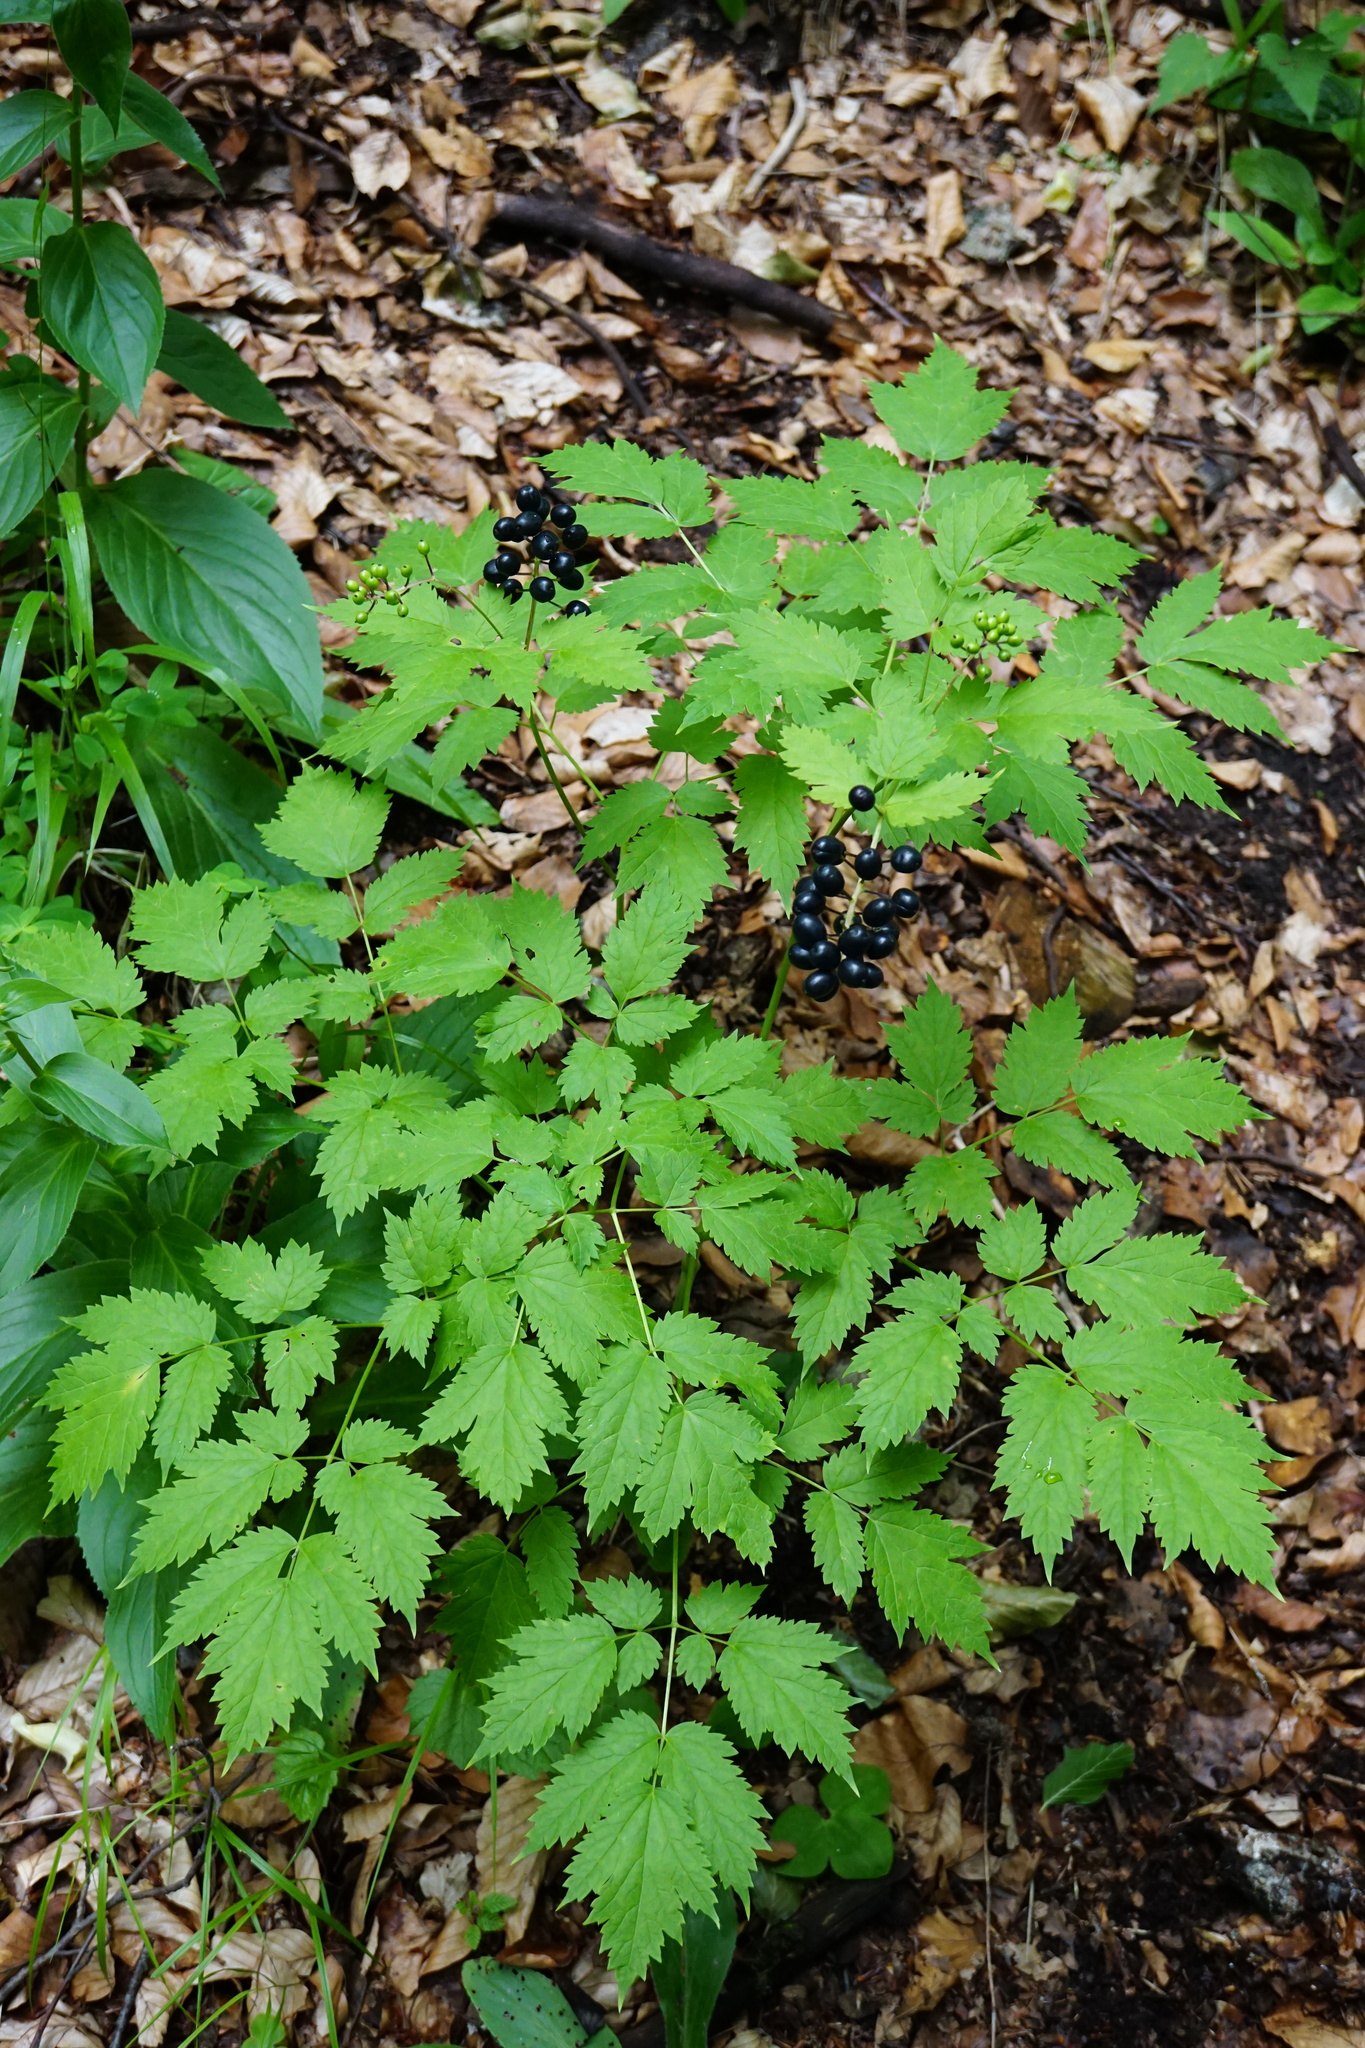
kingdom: Plantae
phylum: Tracheophyta
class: Magnoliopsida
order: Ranunculales
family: Ranunculaceae
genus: Actaea
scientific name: Actaea spicata
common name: Baneberry
